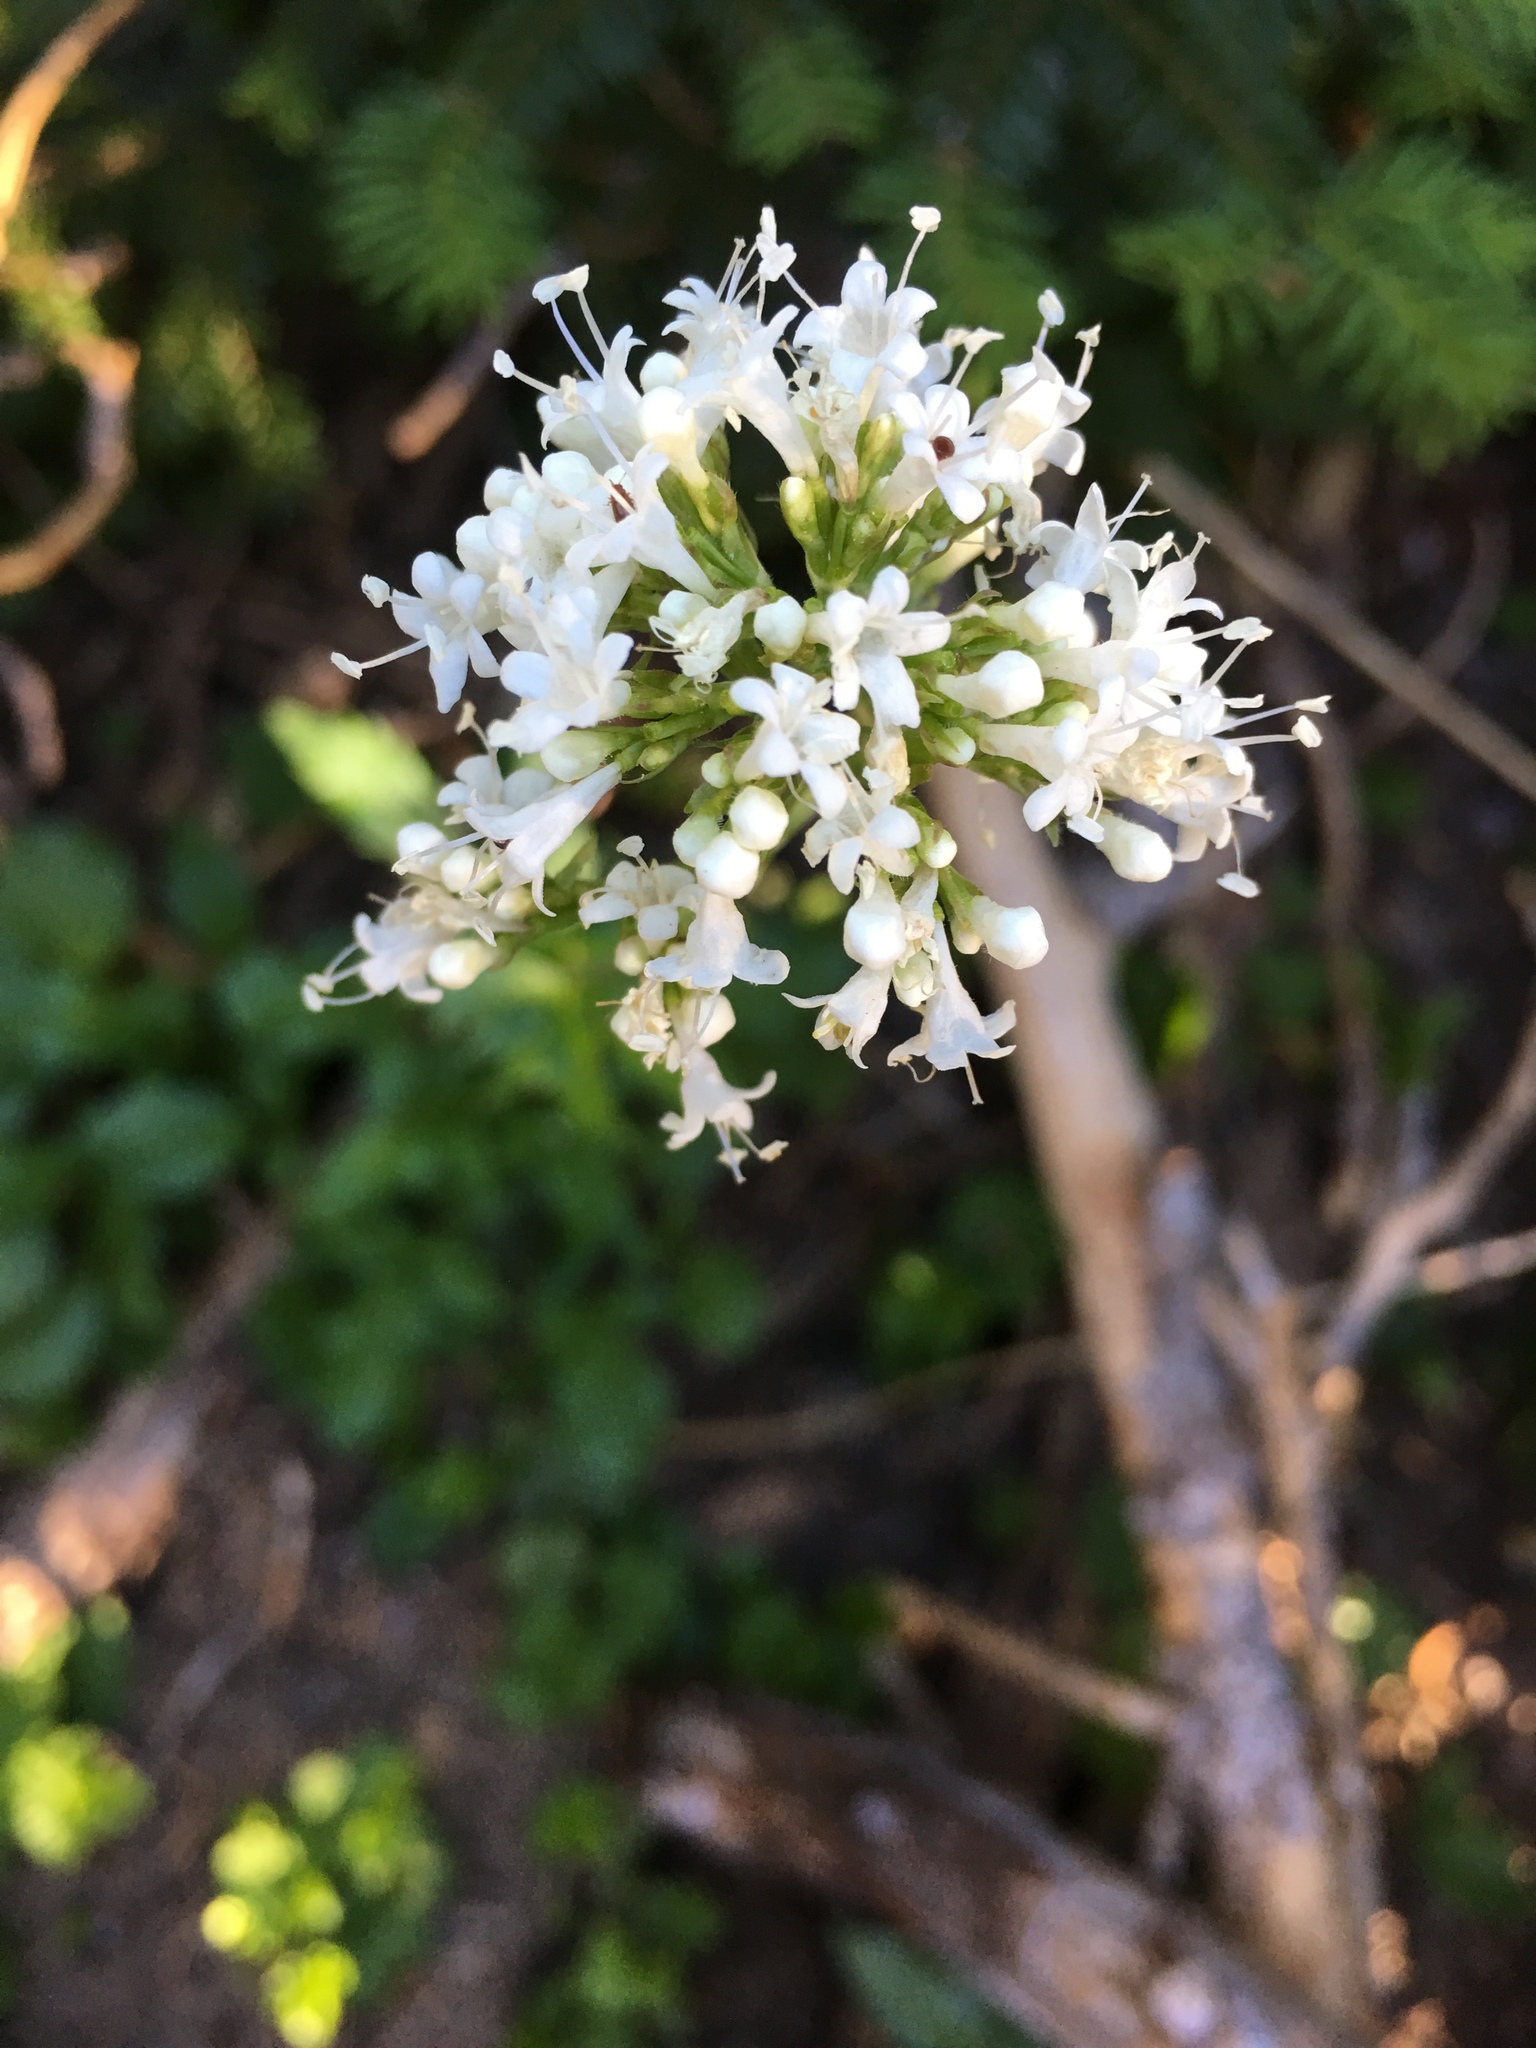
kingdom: Plantae
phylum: Tracheophyta
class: Magnoliopsida
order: Dipsacales
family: Caprifoliaceae
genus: Valeriana
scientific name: Valeriana sitchensis
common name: Pacific valerian
